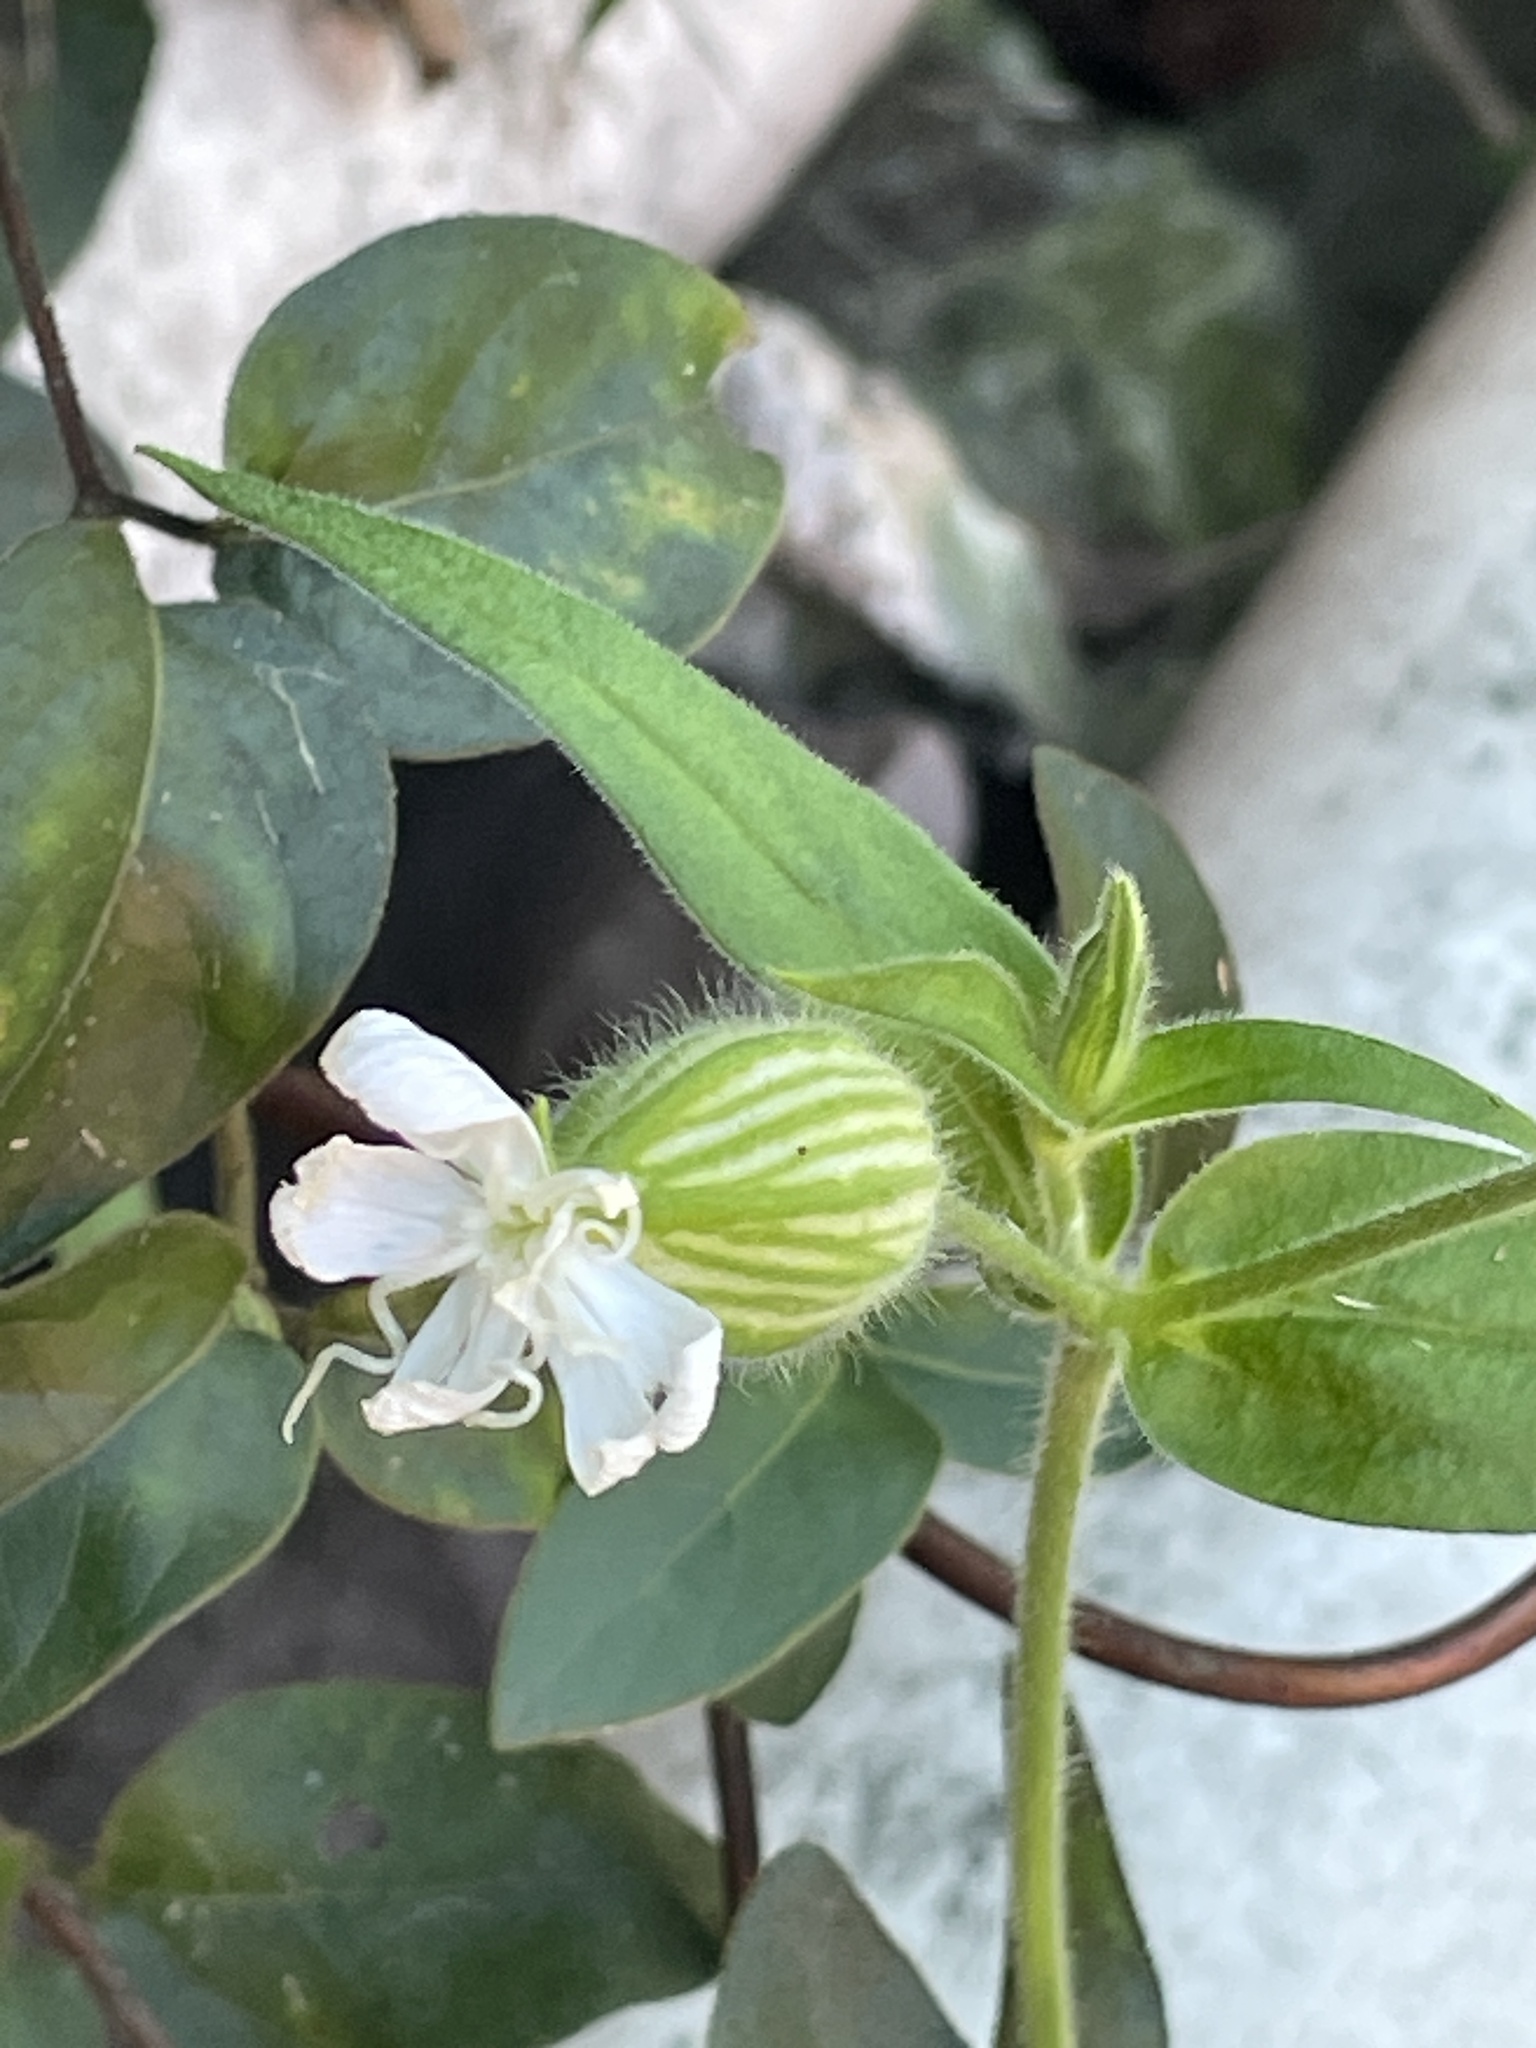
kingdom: Plantae
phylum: Tracheophyta
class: Magnoliopsida
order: Caryophyllales
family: Caryophyllaceae
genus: Silene
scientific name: Silene latifolia
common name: White campion
